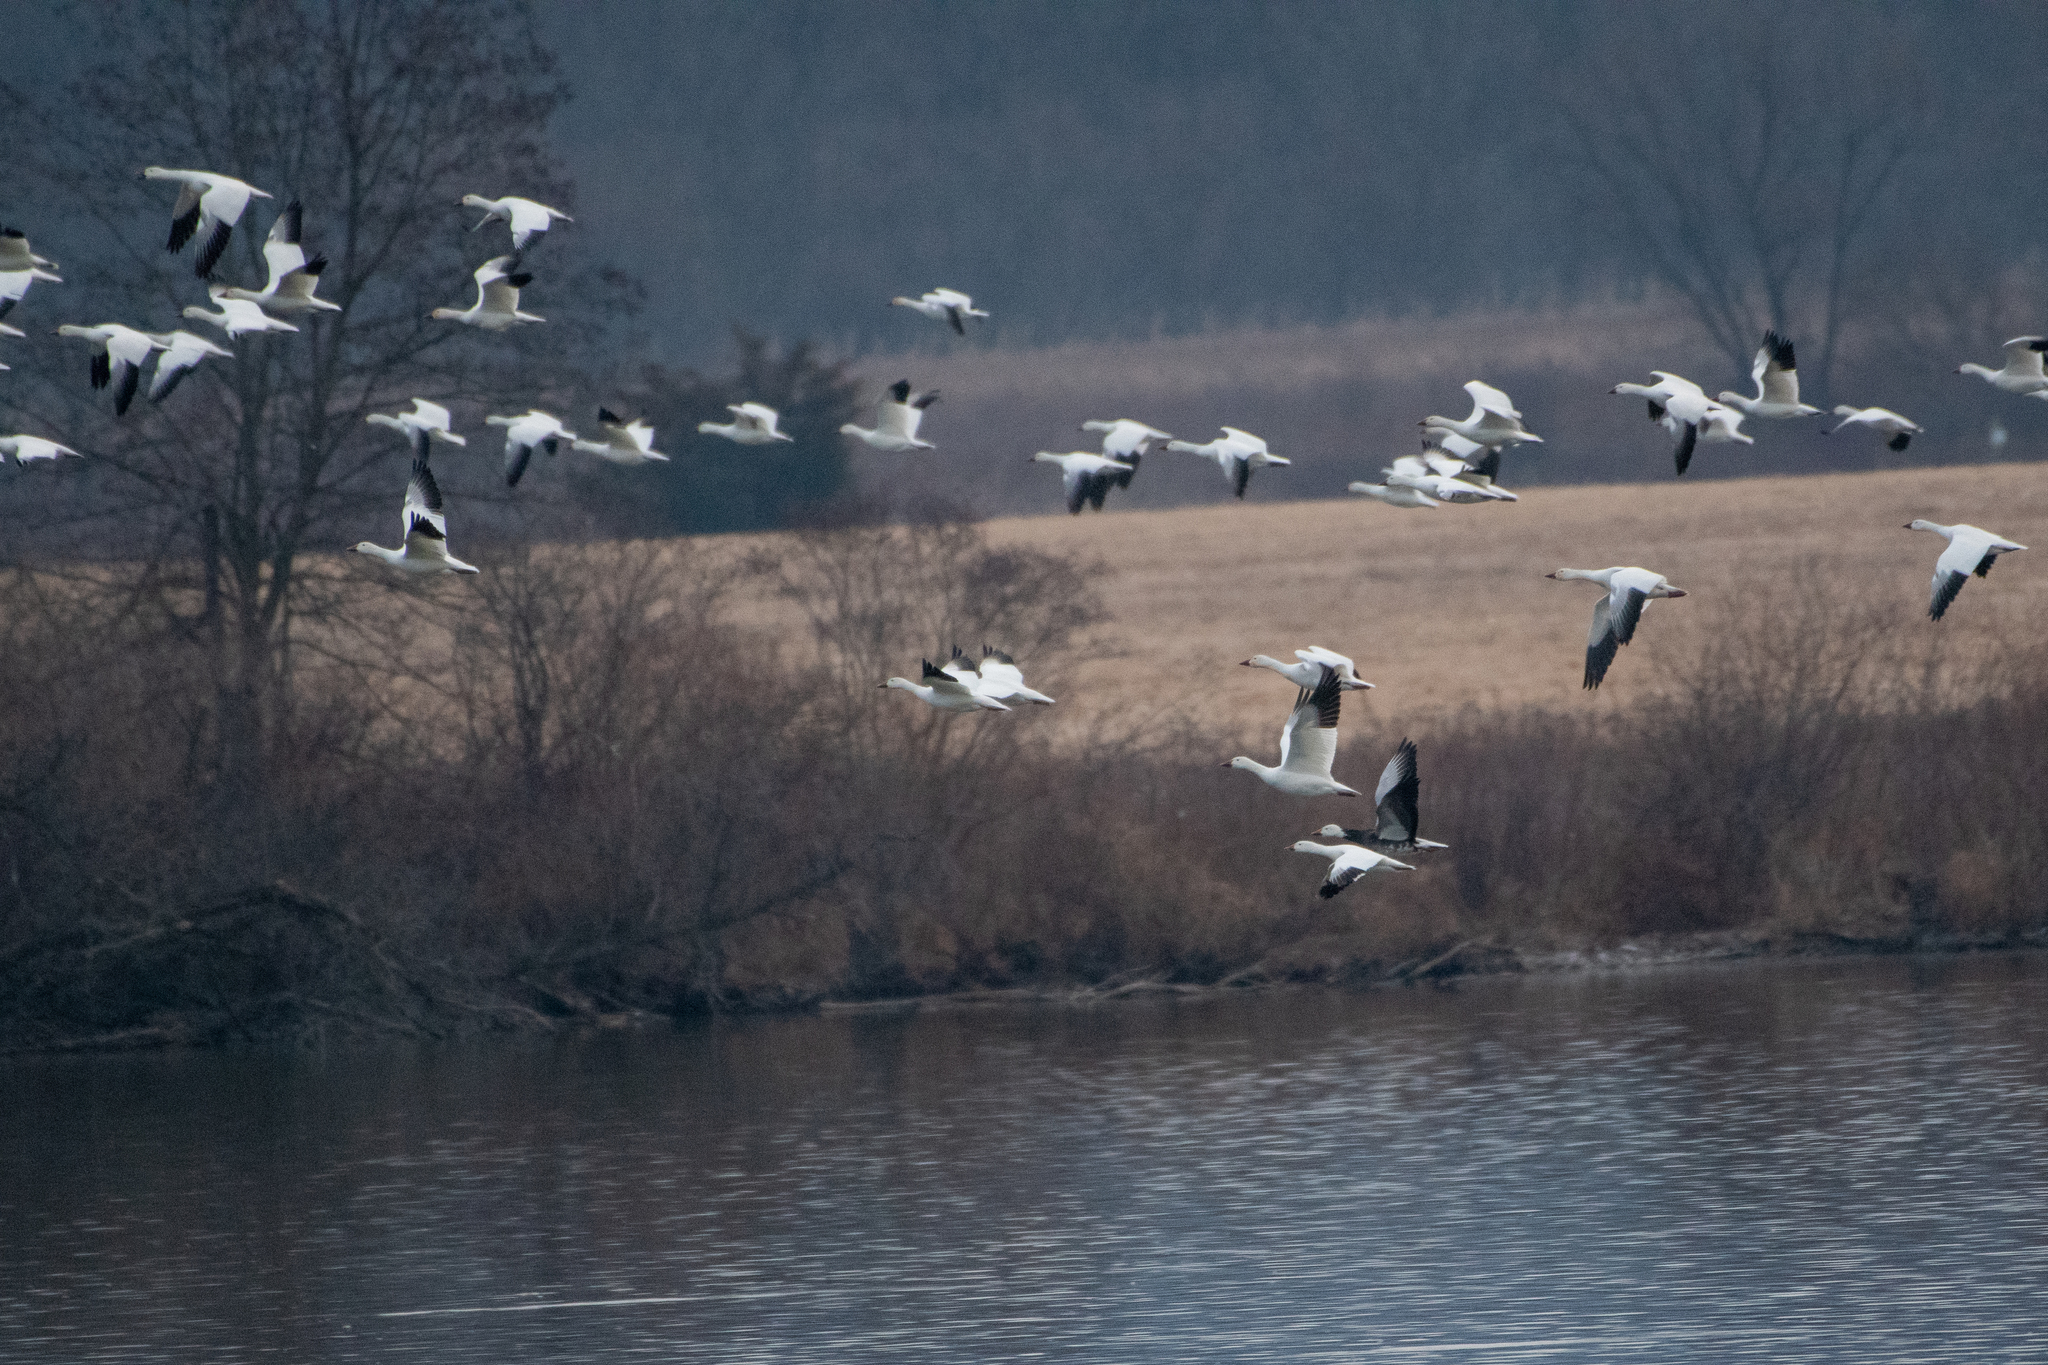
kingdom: Animalia
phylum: Chordata
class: Aves
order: Anseriformes
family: Anatidae
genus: Anser
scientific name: Anser caerulescens
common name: Snow goose
